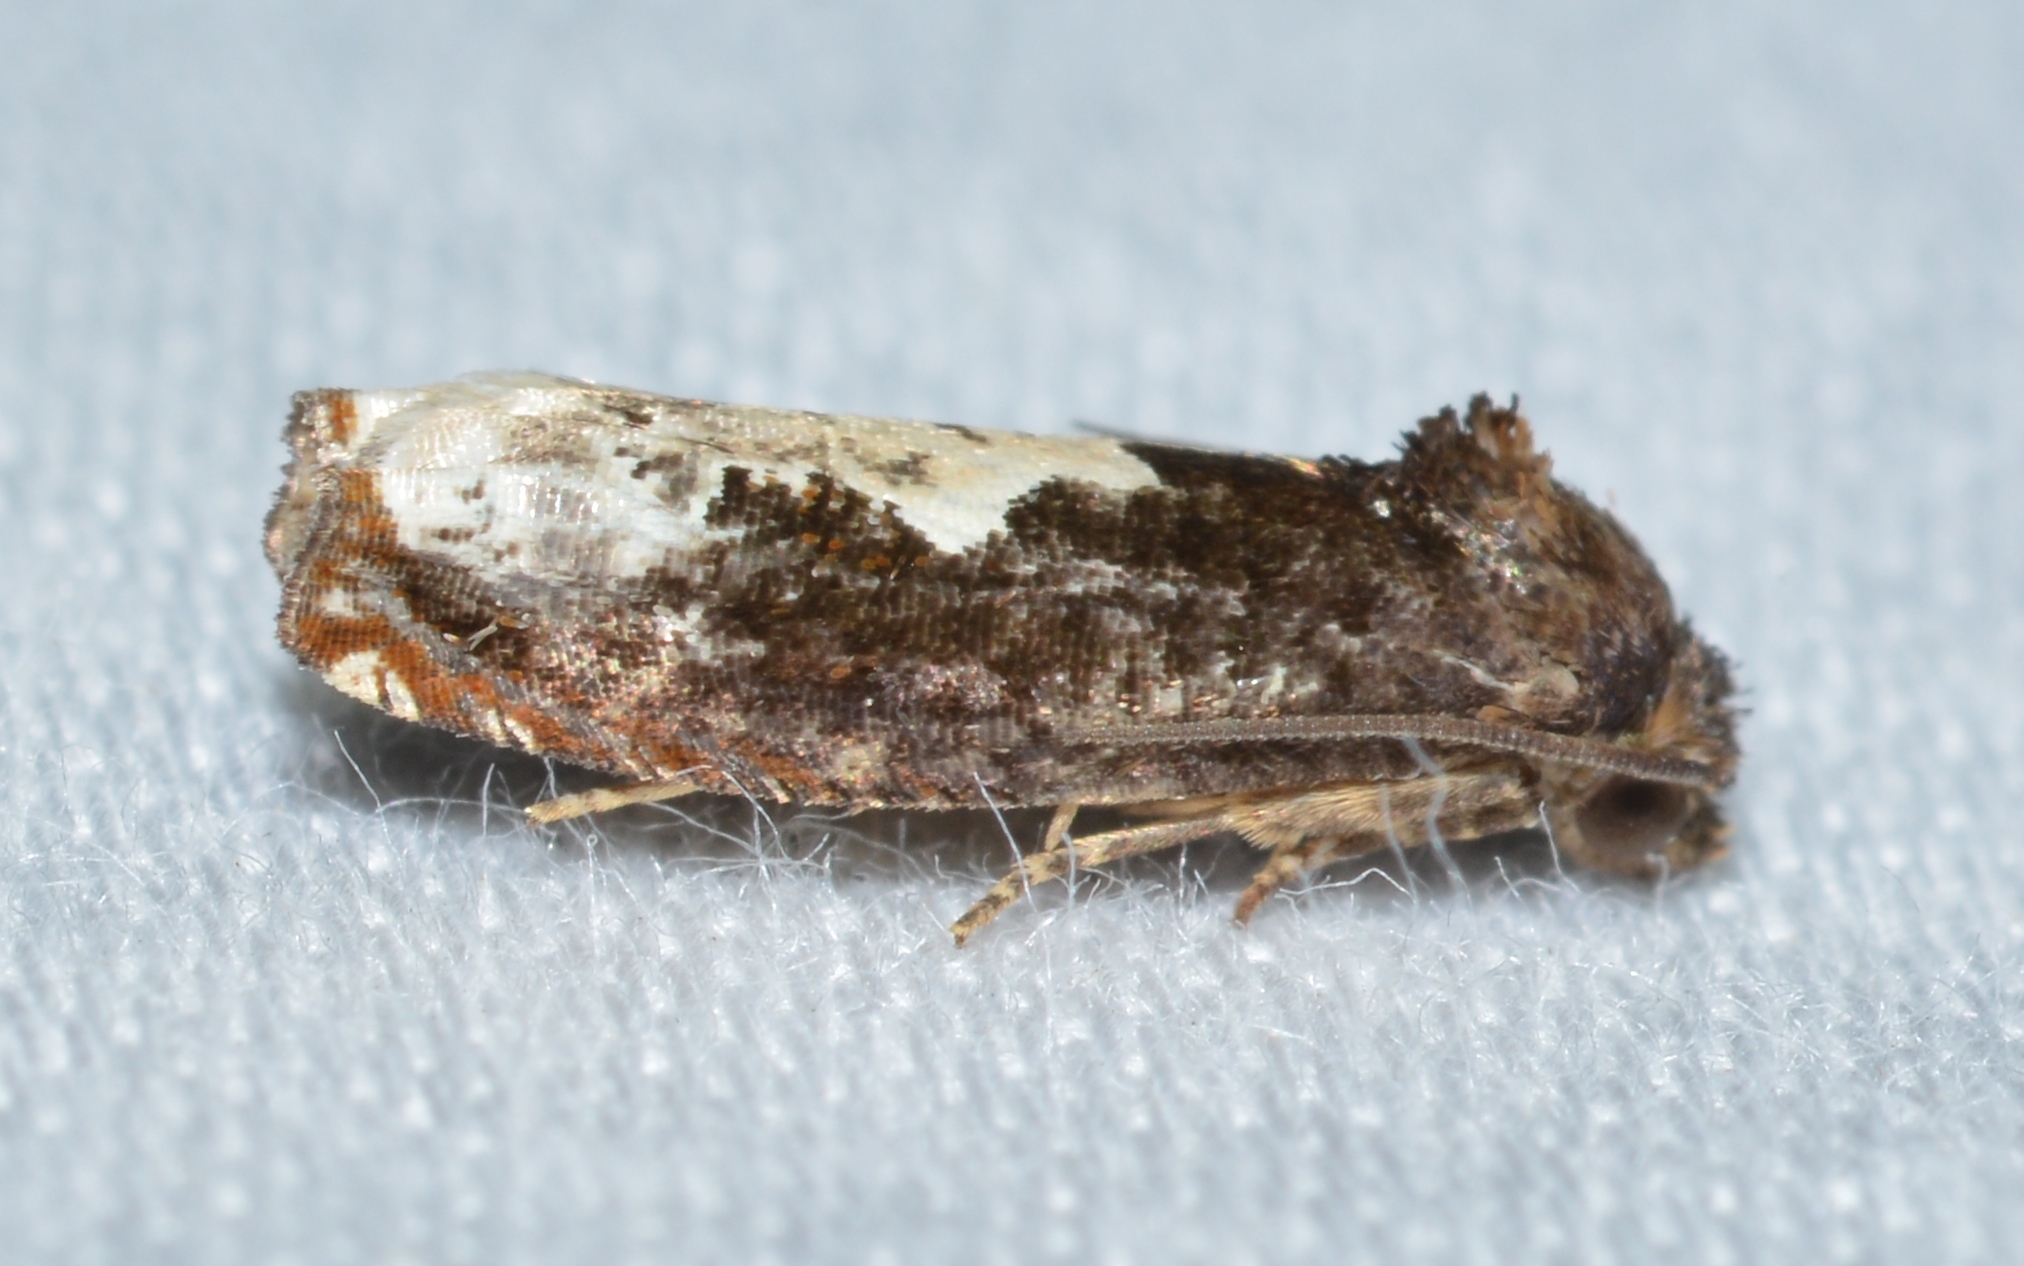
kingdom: Animalia
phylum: Arthropoda
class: Insecta
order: Lepidoptera
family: Tortricidae
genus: Epiblema
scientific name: Epiblema dorsisuffusana
